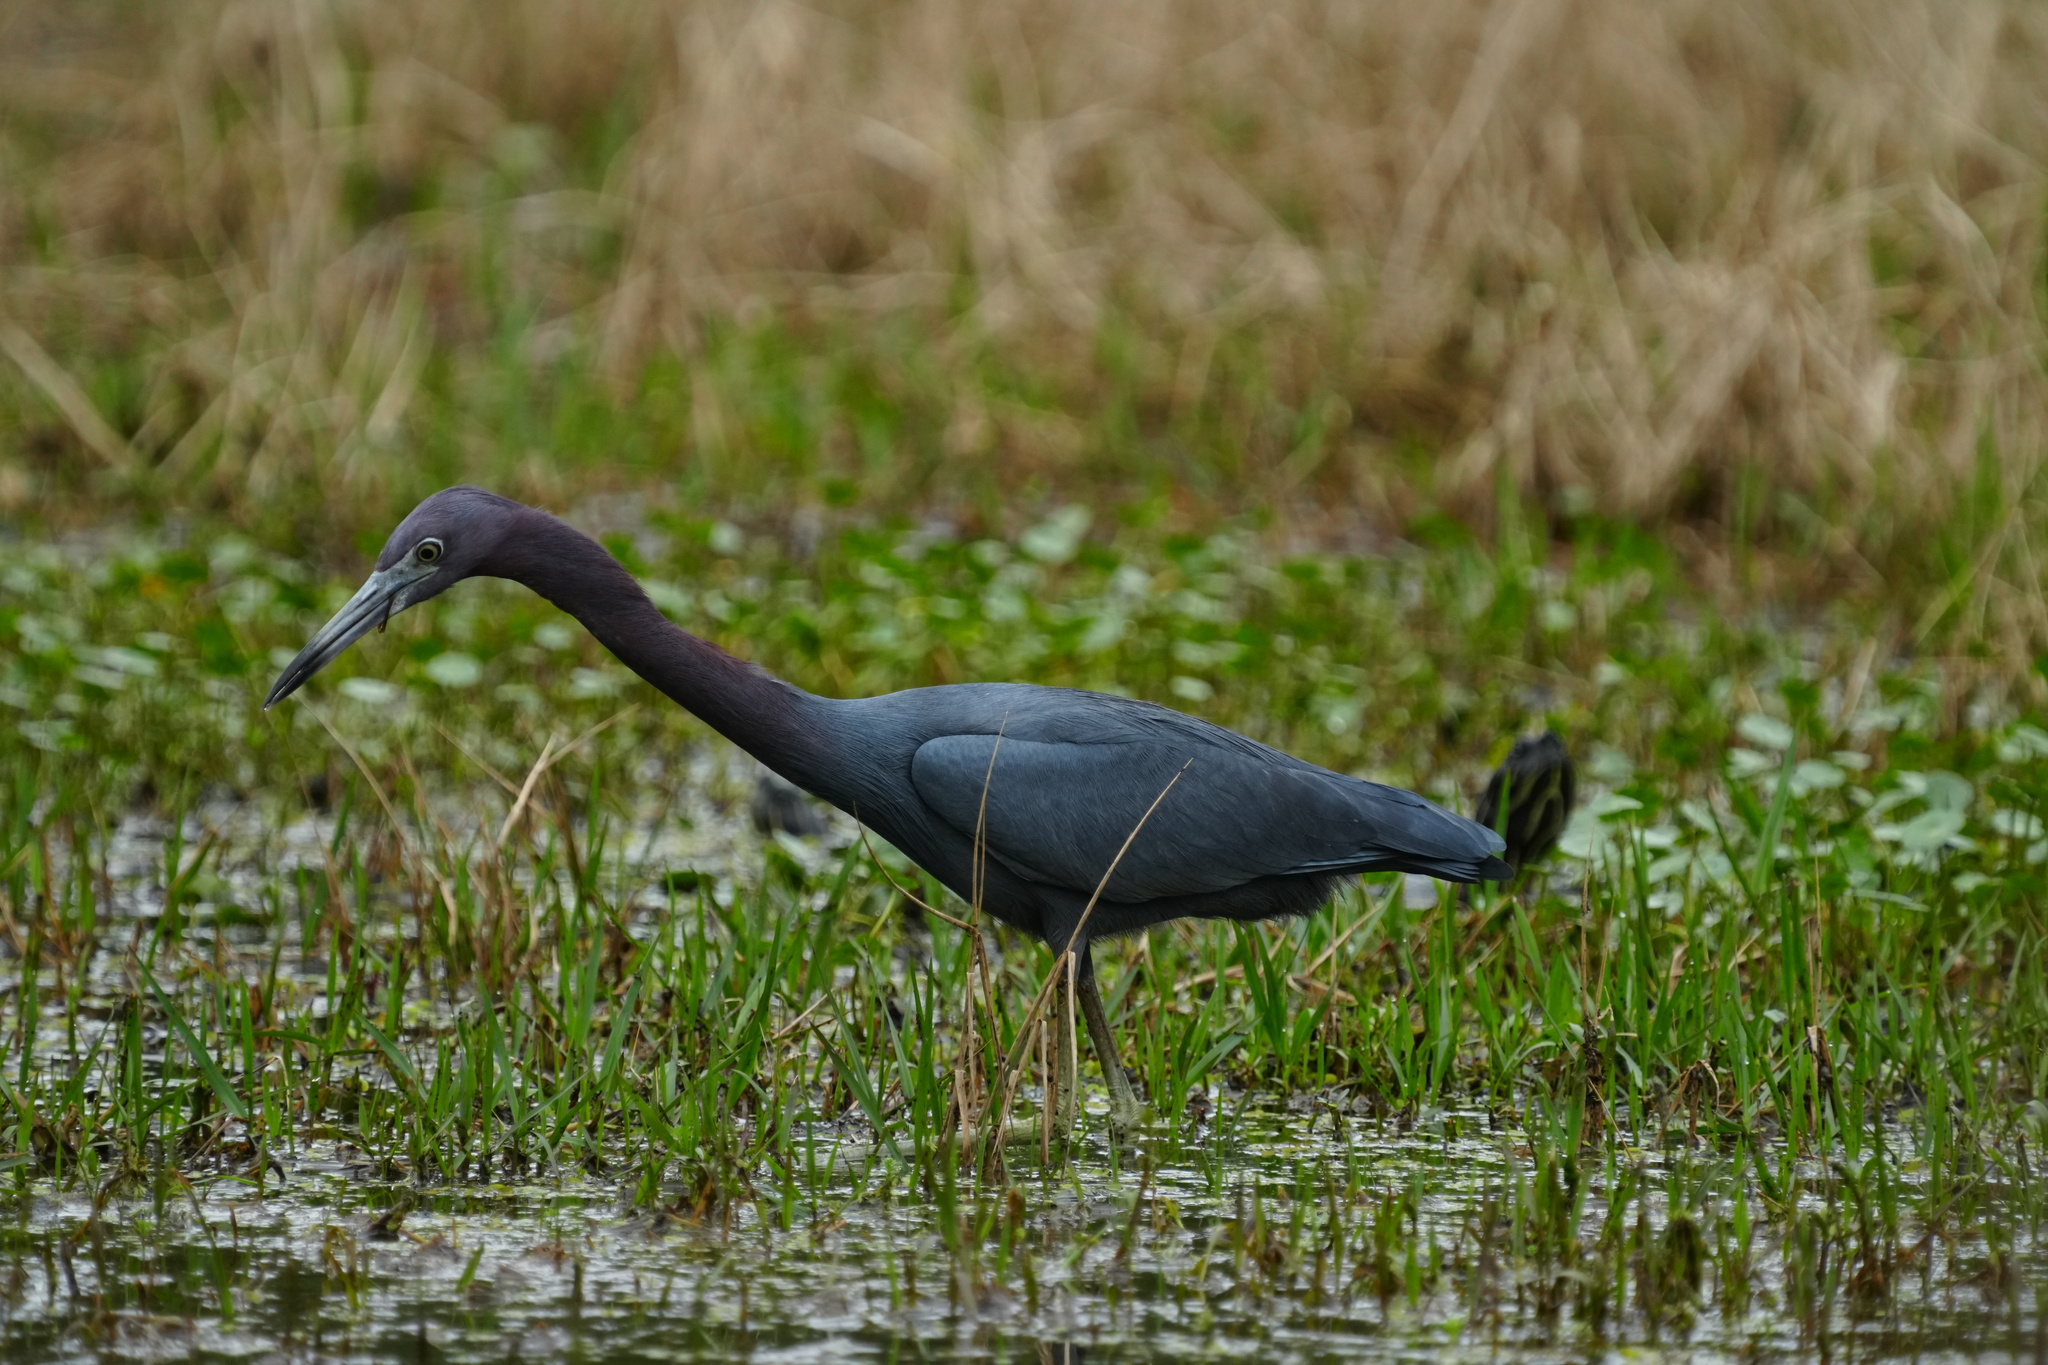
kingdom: Animalia
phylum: Chordata
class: Aves
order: Pelecaniformes
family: Ardeidae
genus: Egretta
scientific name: Egretta caerulea
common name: Little blue heron
